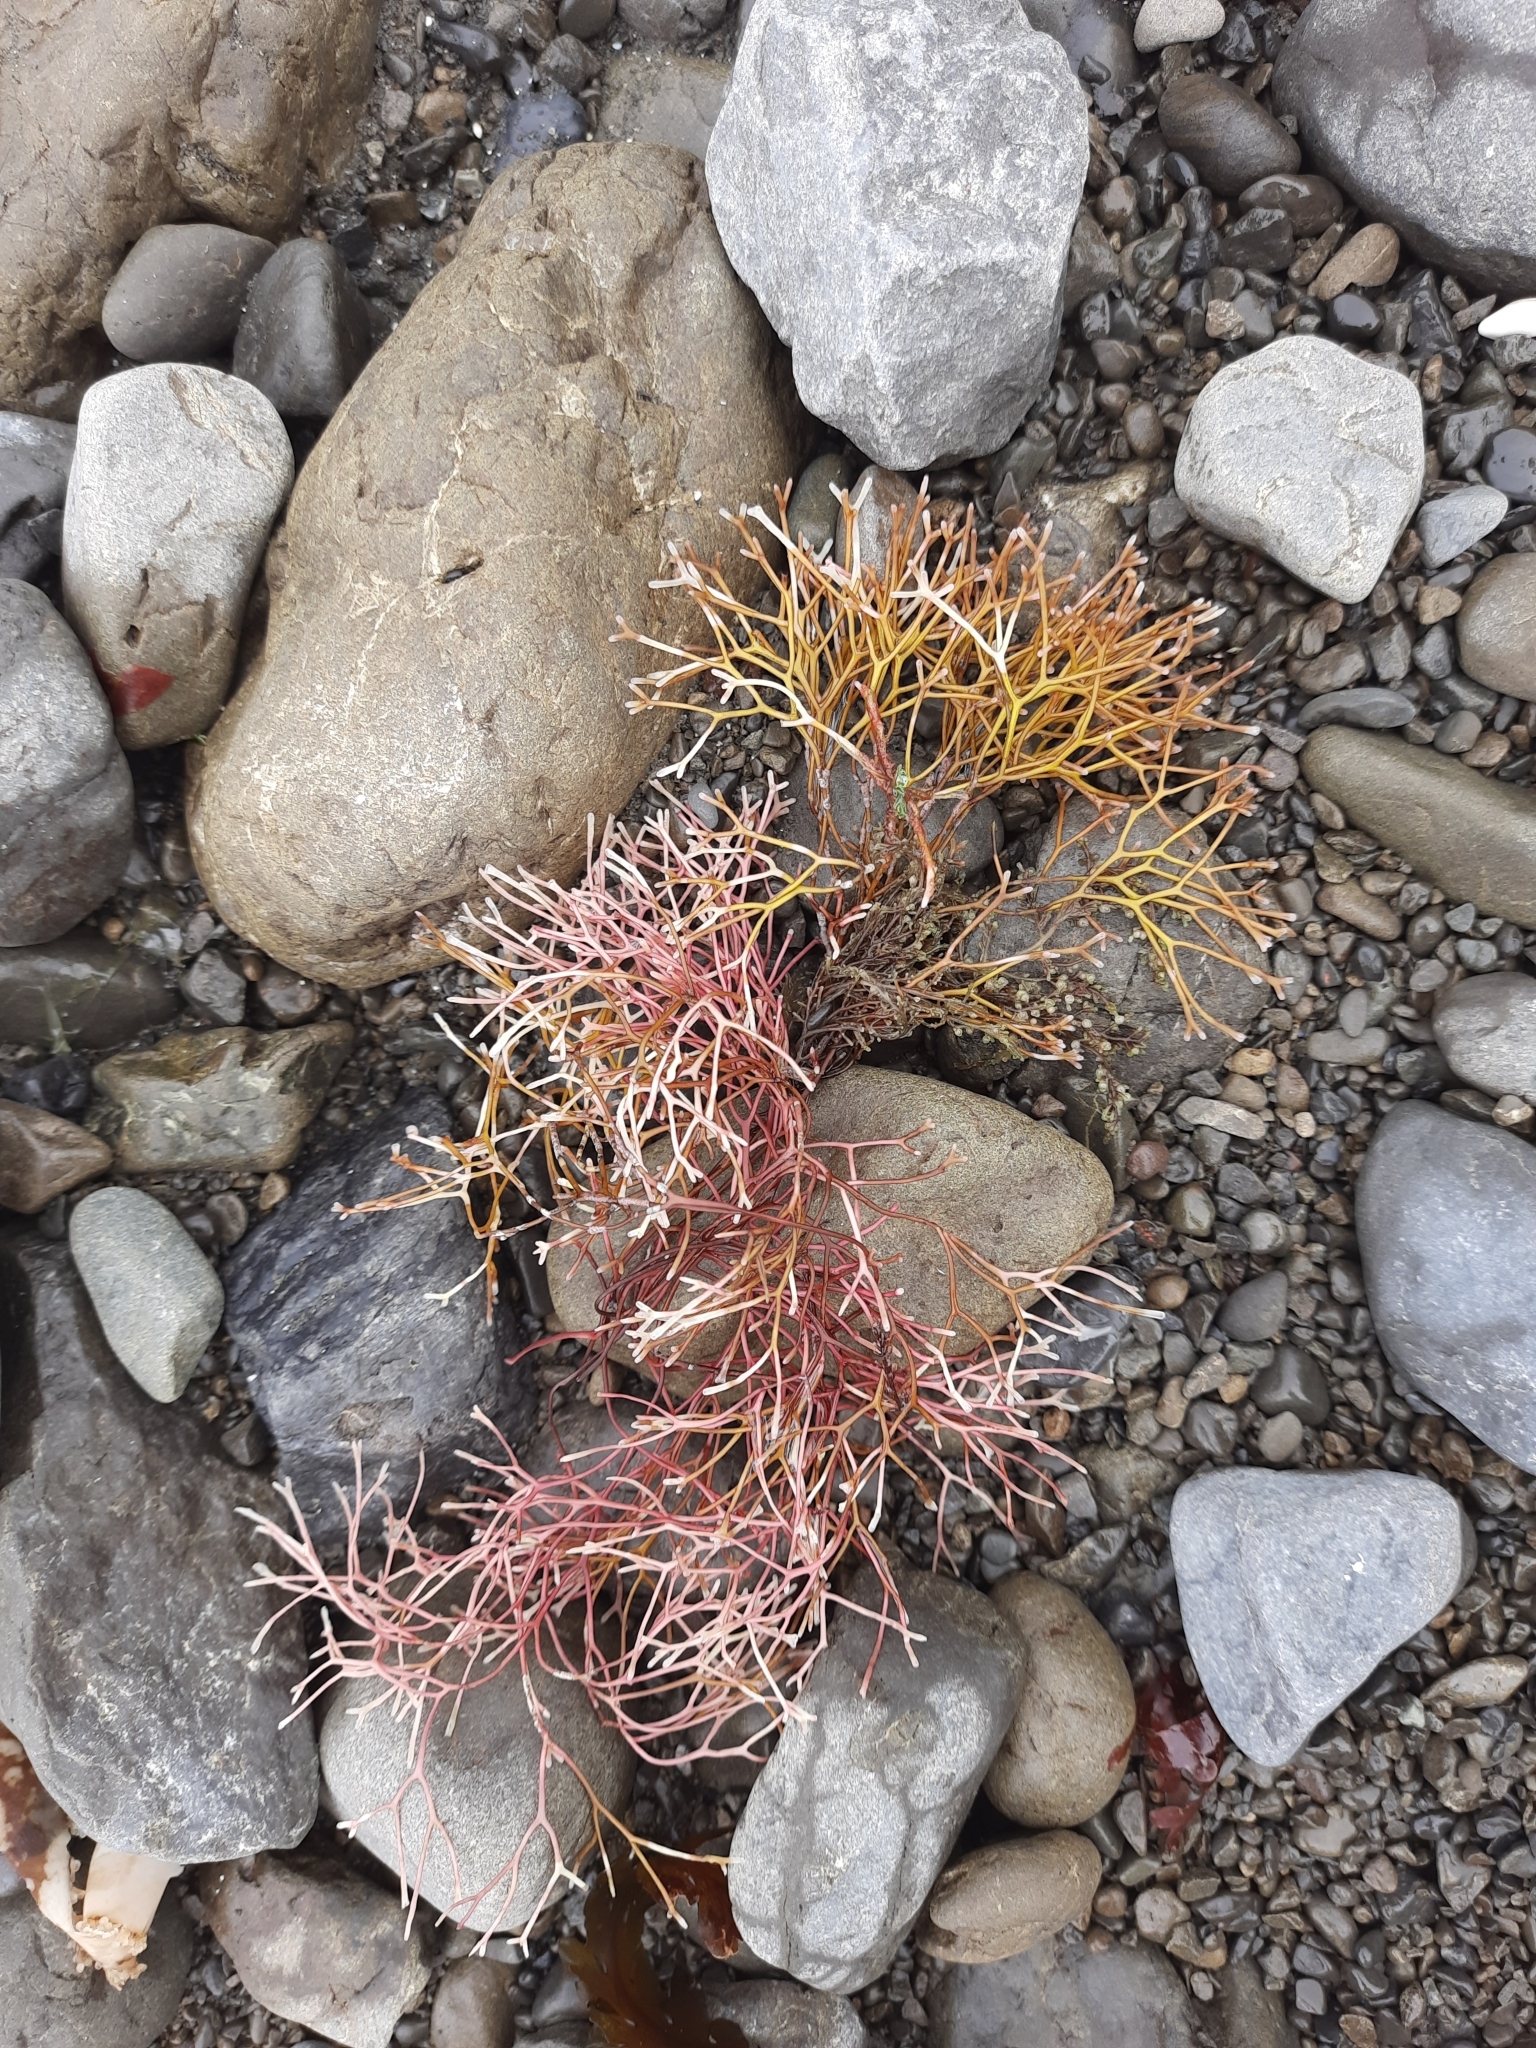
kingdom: Plantae
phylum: Rhodophyta
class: Florideophyceae
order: Gigartinales
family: Phyllophoraceae
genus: Gymnogongrus
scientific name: Gymnogongrus furcatus
